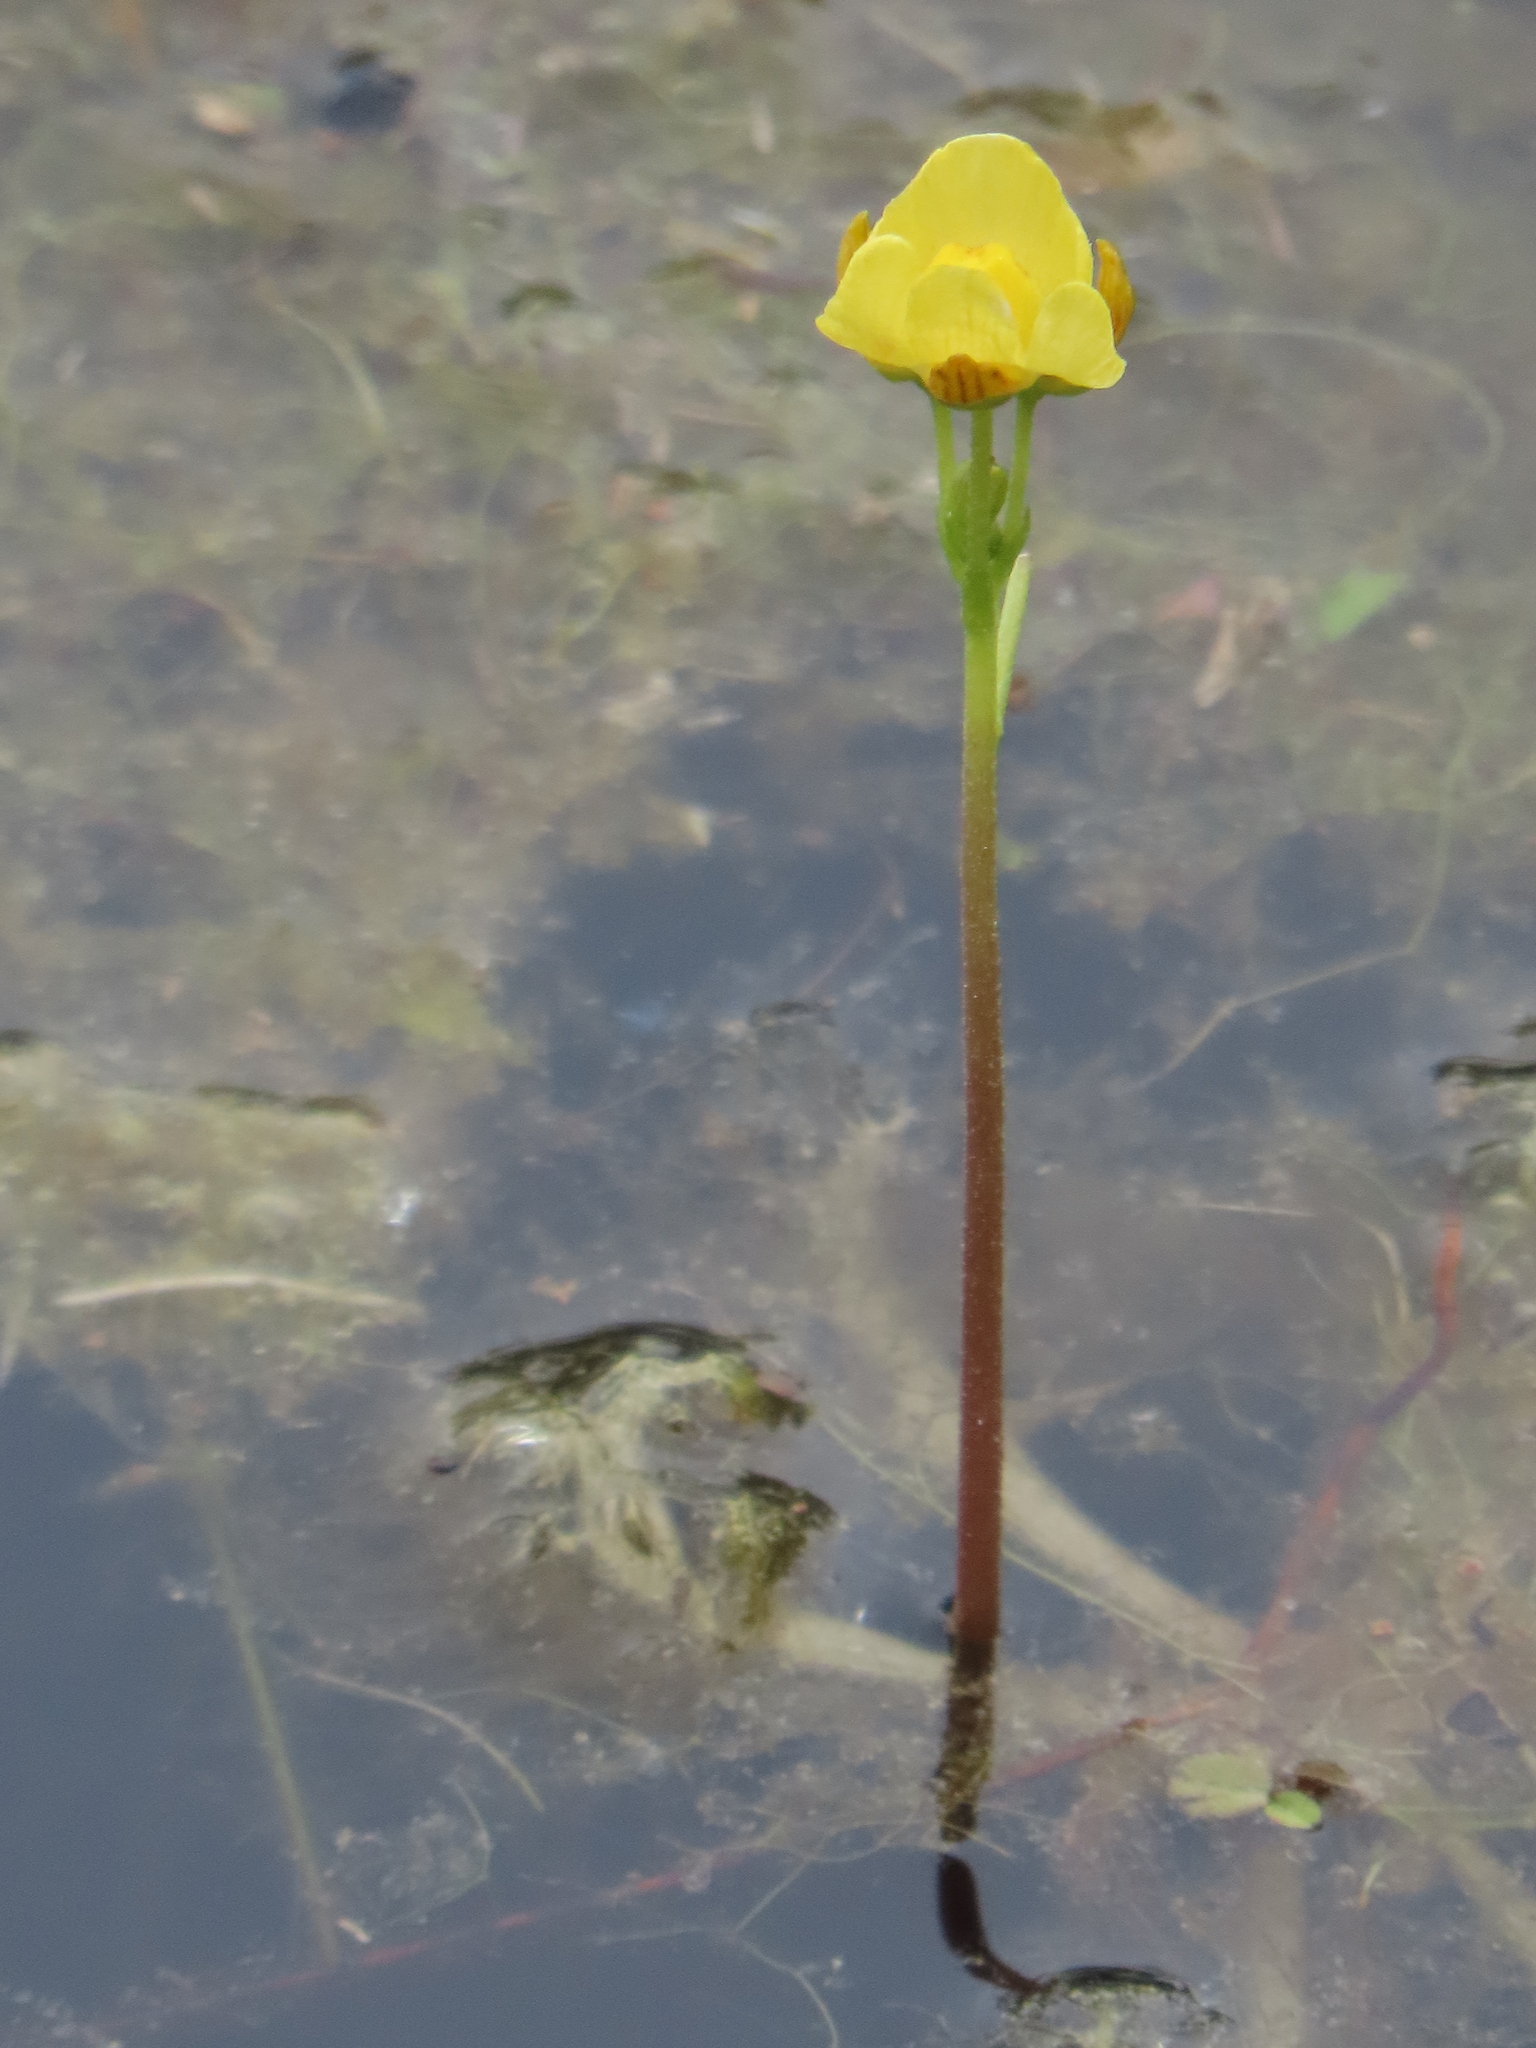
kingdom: Plantae
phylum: Tracheophyta
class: Magnoliopsida
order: Lamiales
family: Lentibulariaceae
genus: Utricularia
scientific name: Utricularia inflata
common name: Floating bladderwort
